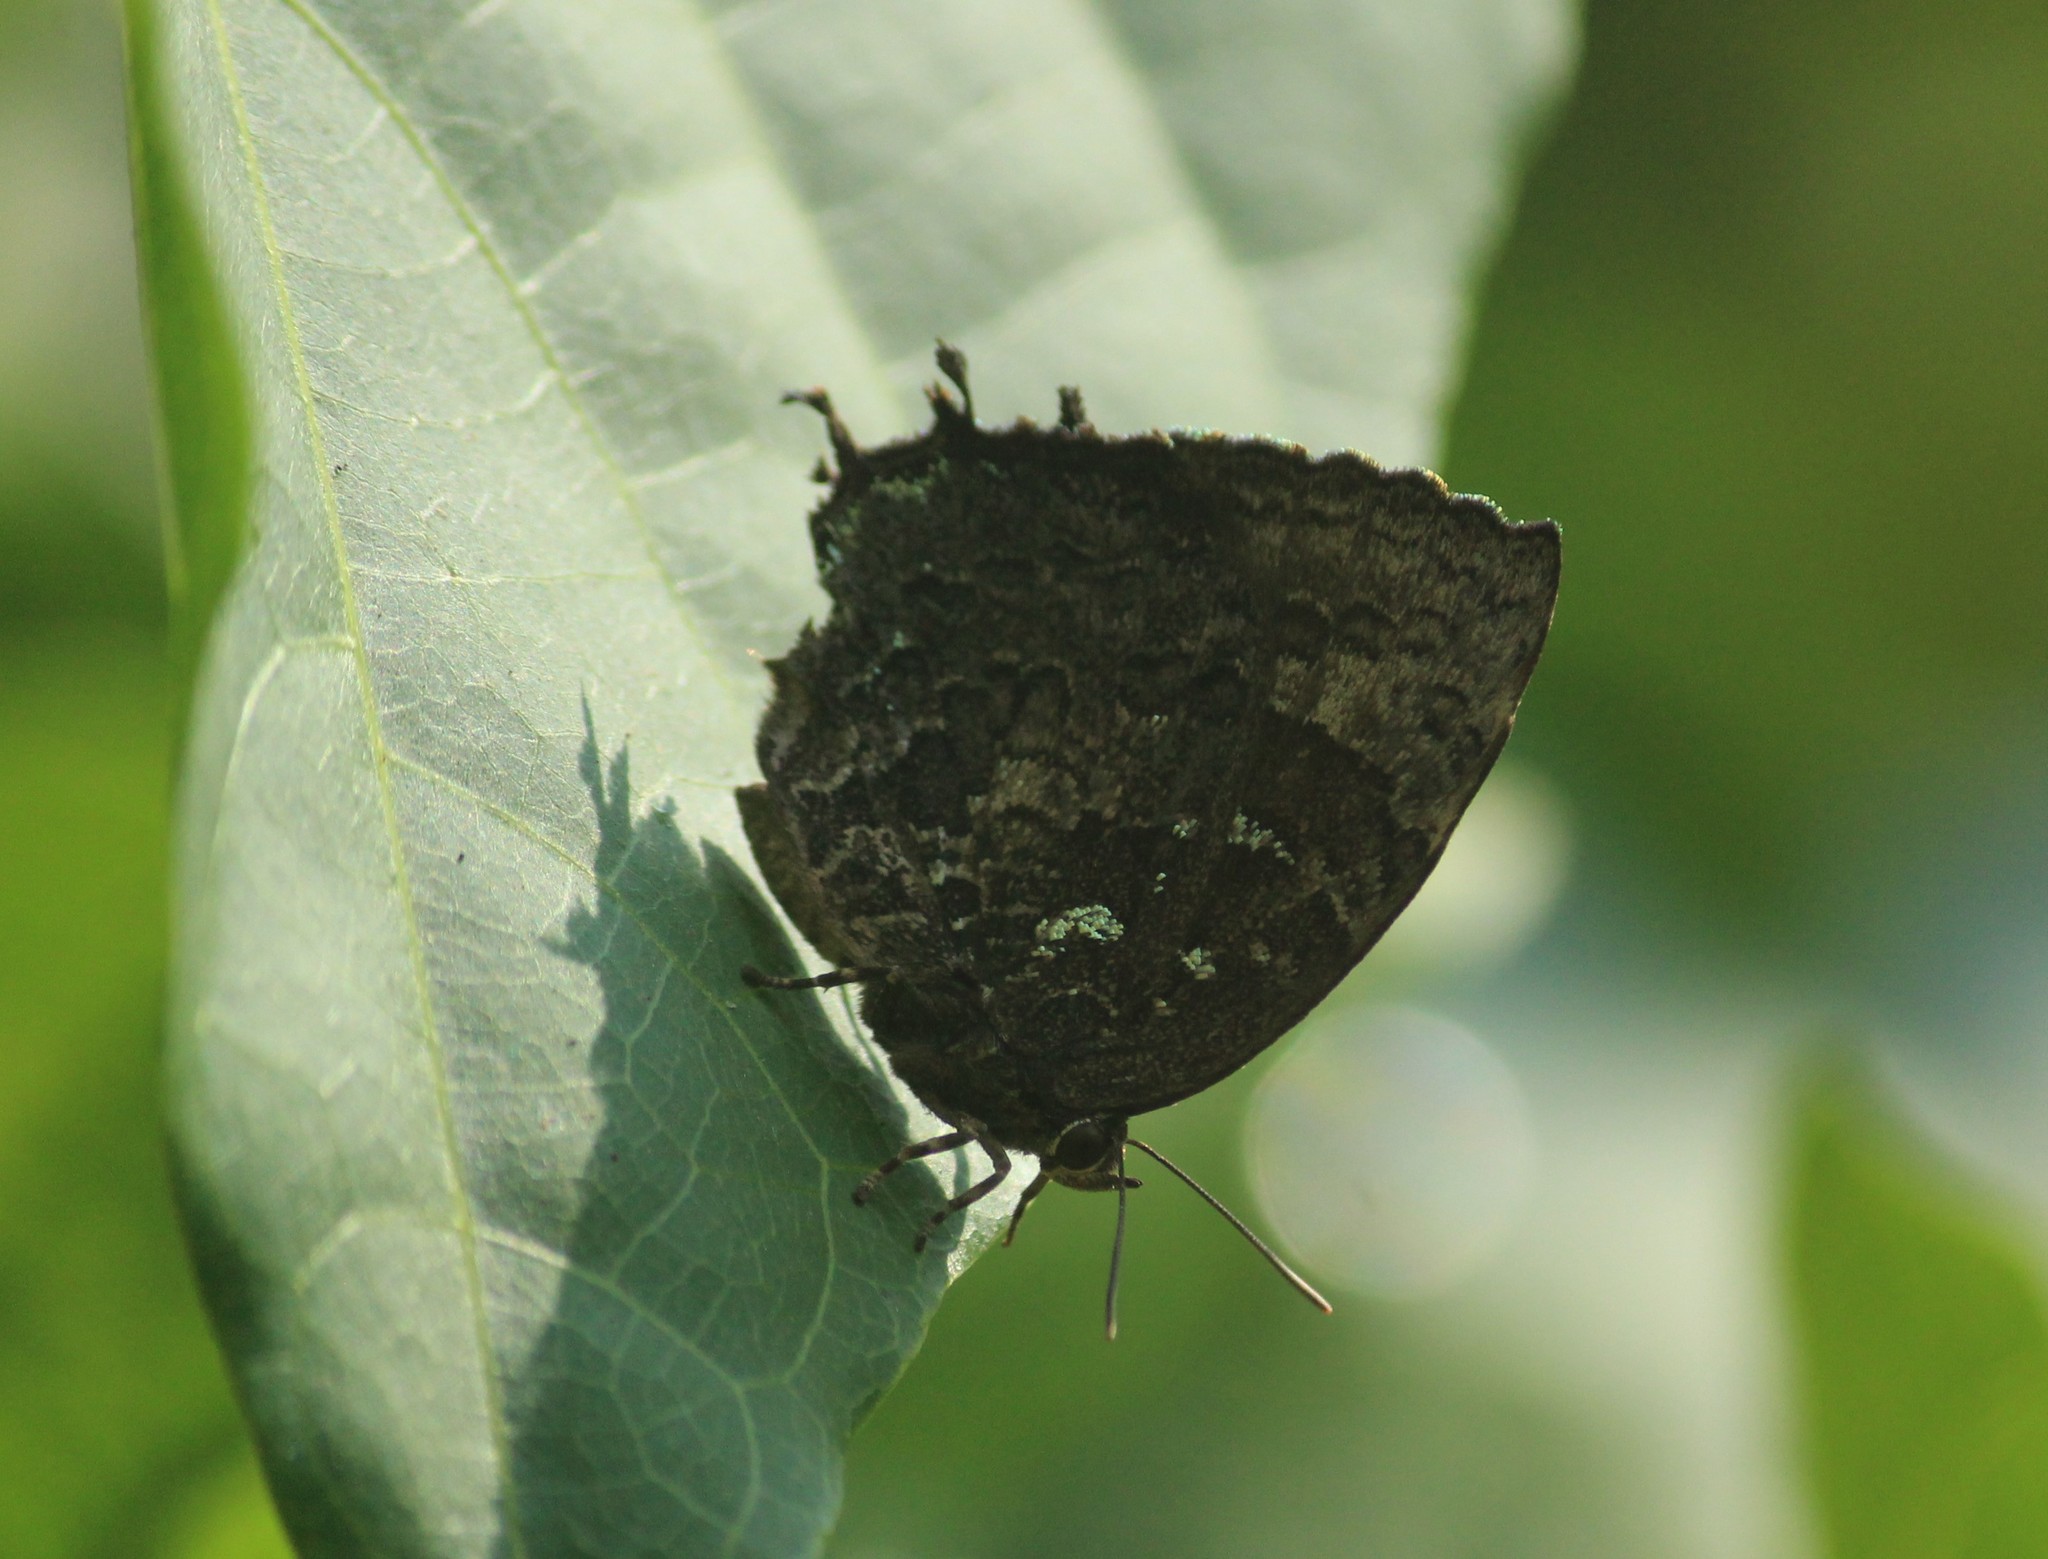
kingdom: Animalia
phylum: Arthropoda
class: Insecta
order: Lepidoptera
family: Lycaenidae
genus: Thaduka
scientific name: Thaduka multicaudata
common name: Many-tailed oakblue
